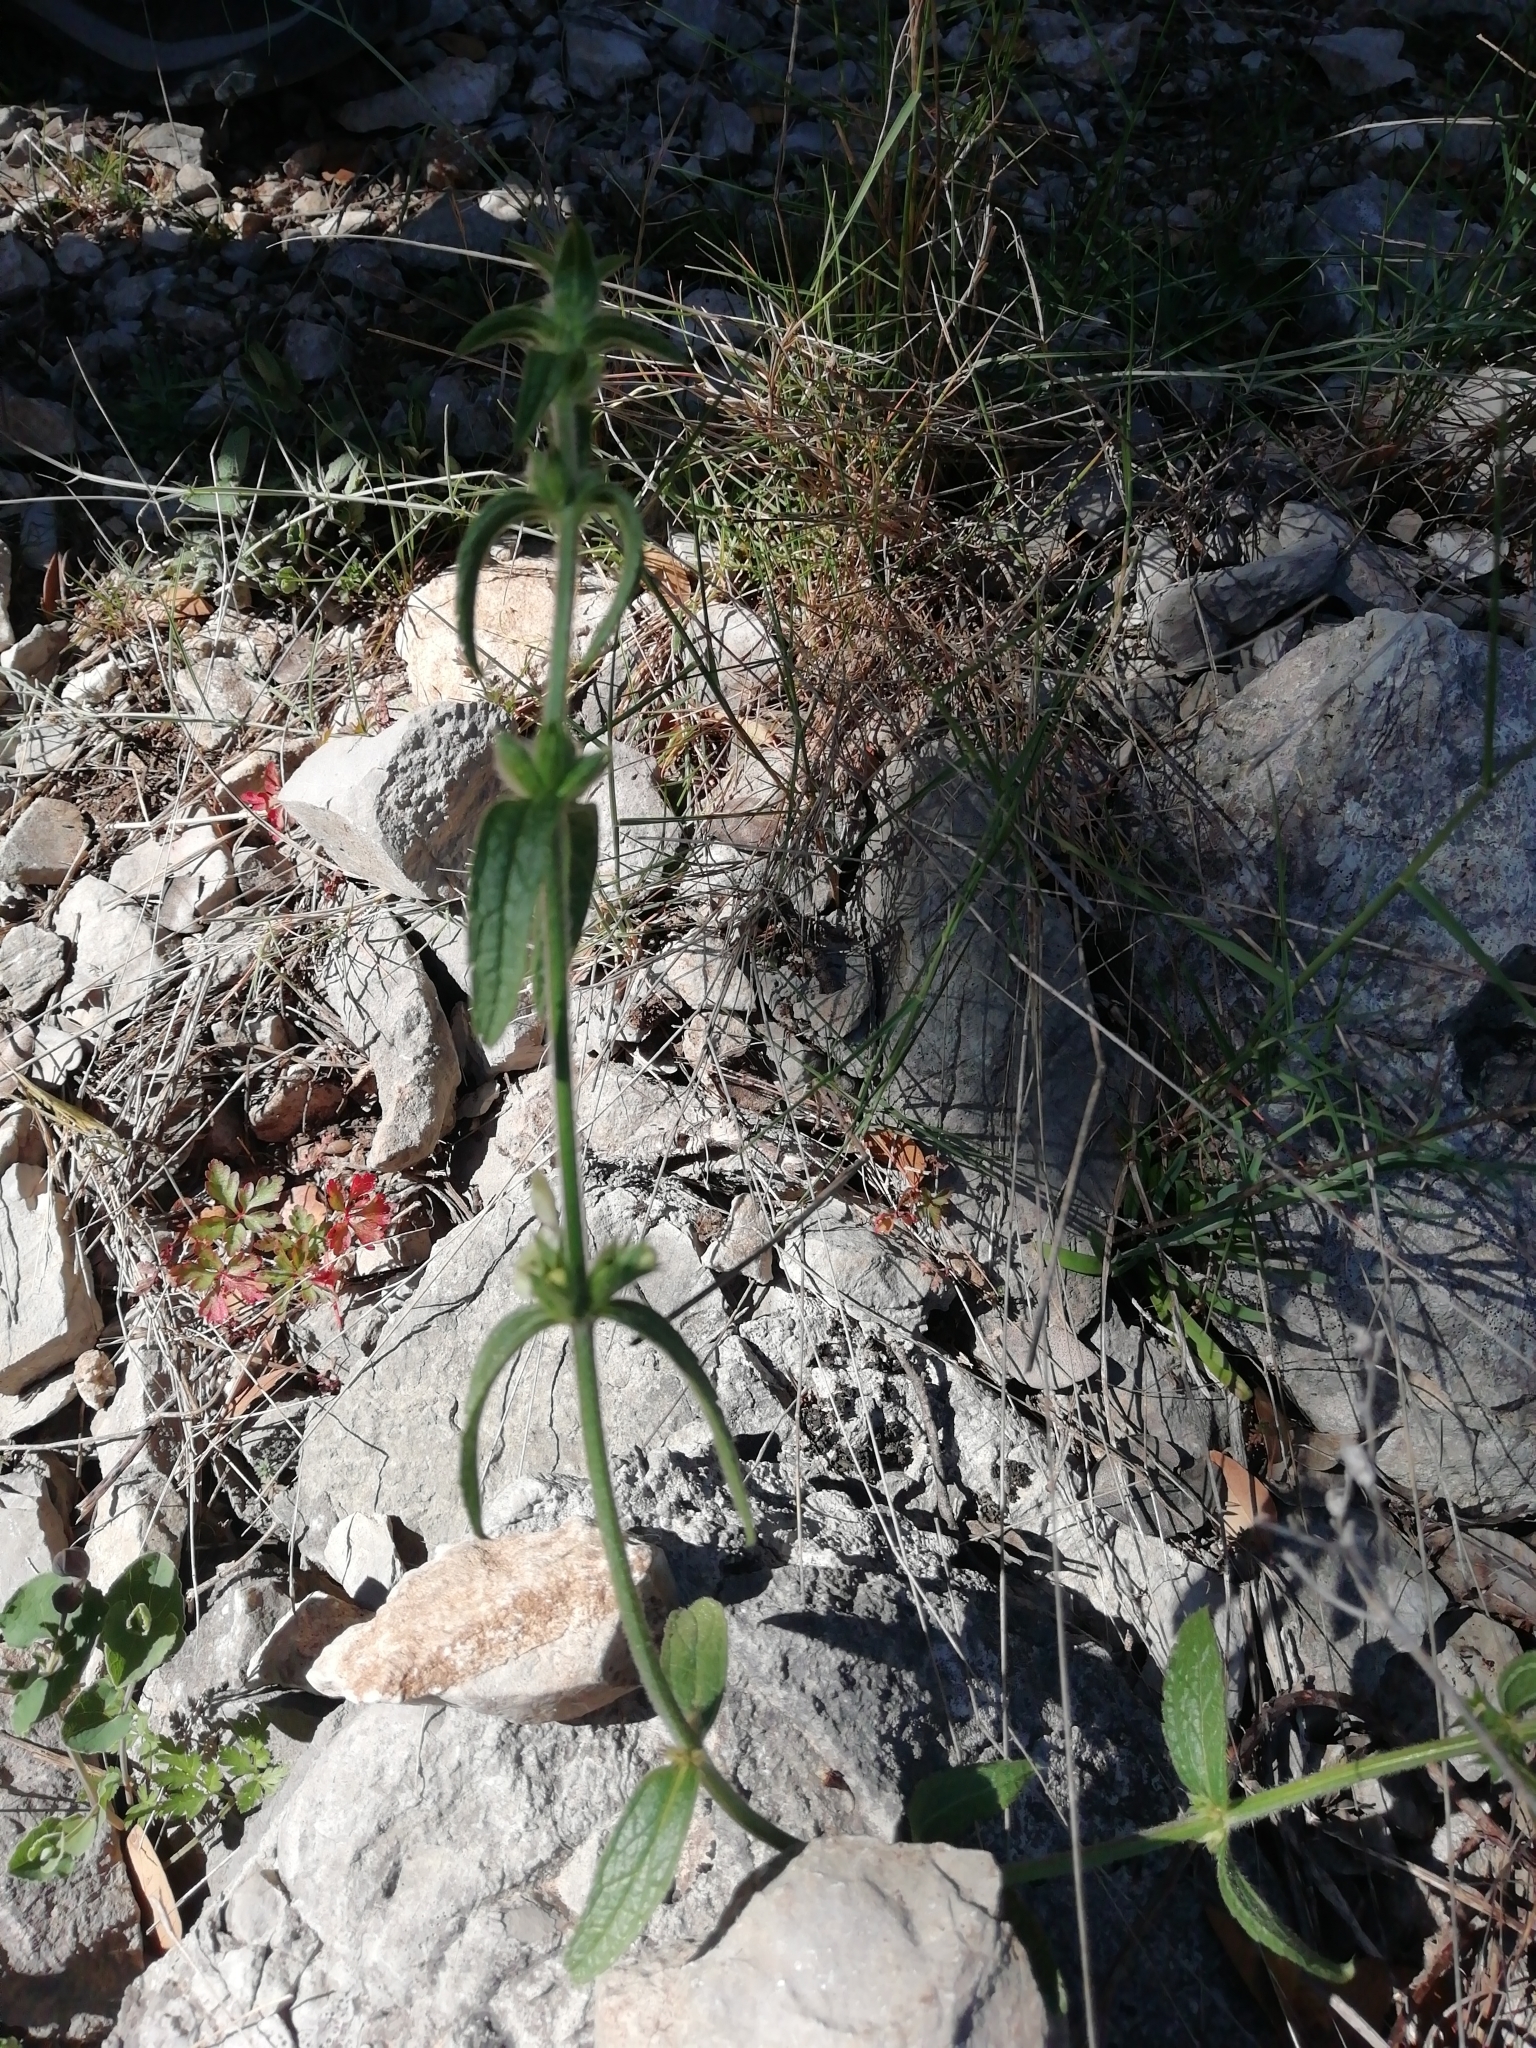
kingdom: Plantae
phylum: Tracheophyta
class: Magnoliopsida
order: Lamiales
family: Lamiaceae
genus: Stachys
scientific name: Stachys recta
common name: Perennial yellow-woundwort
